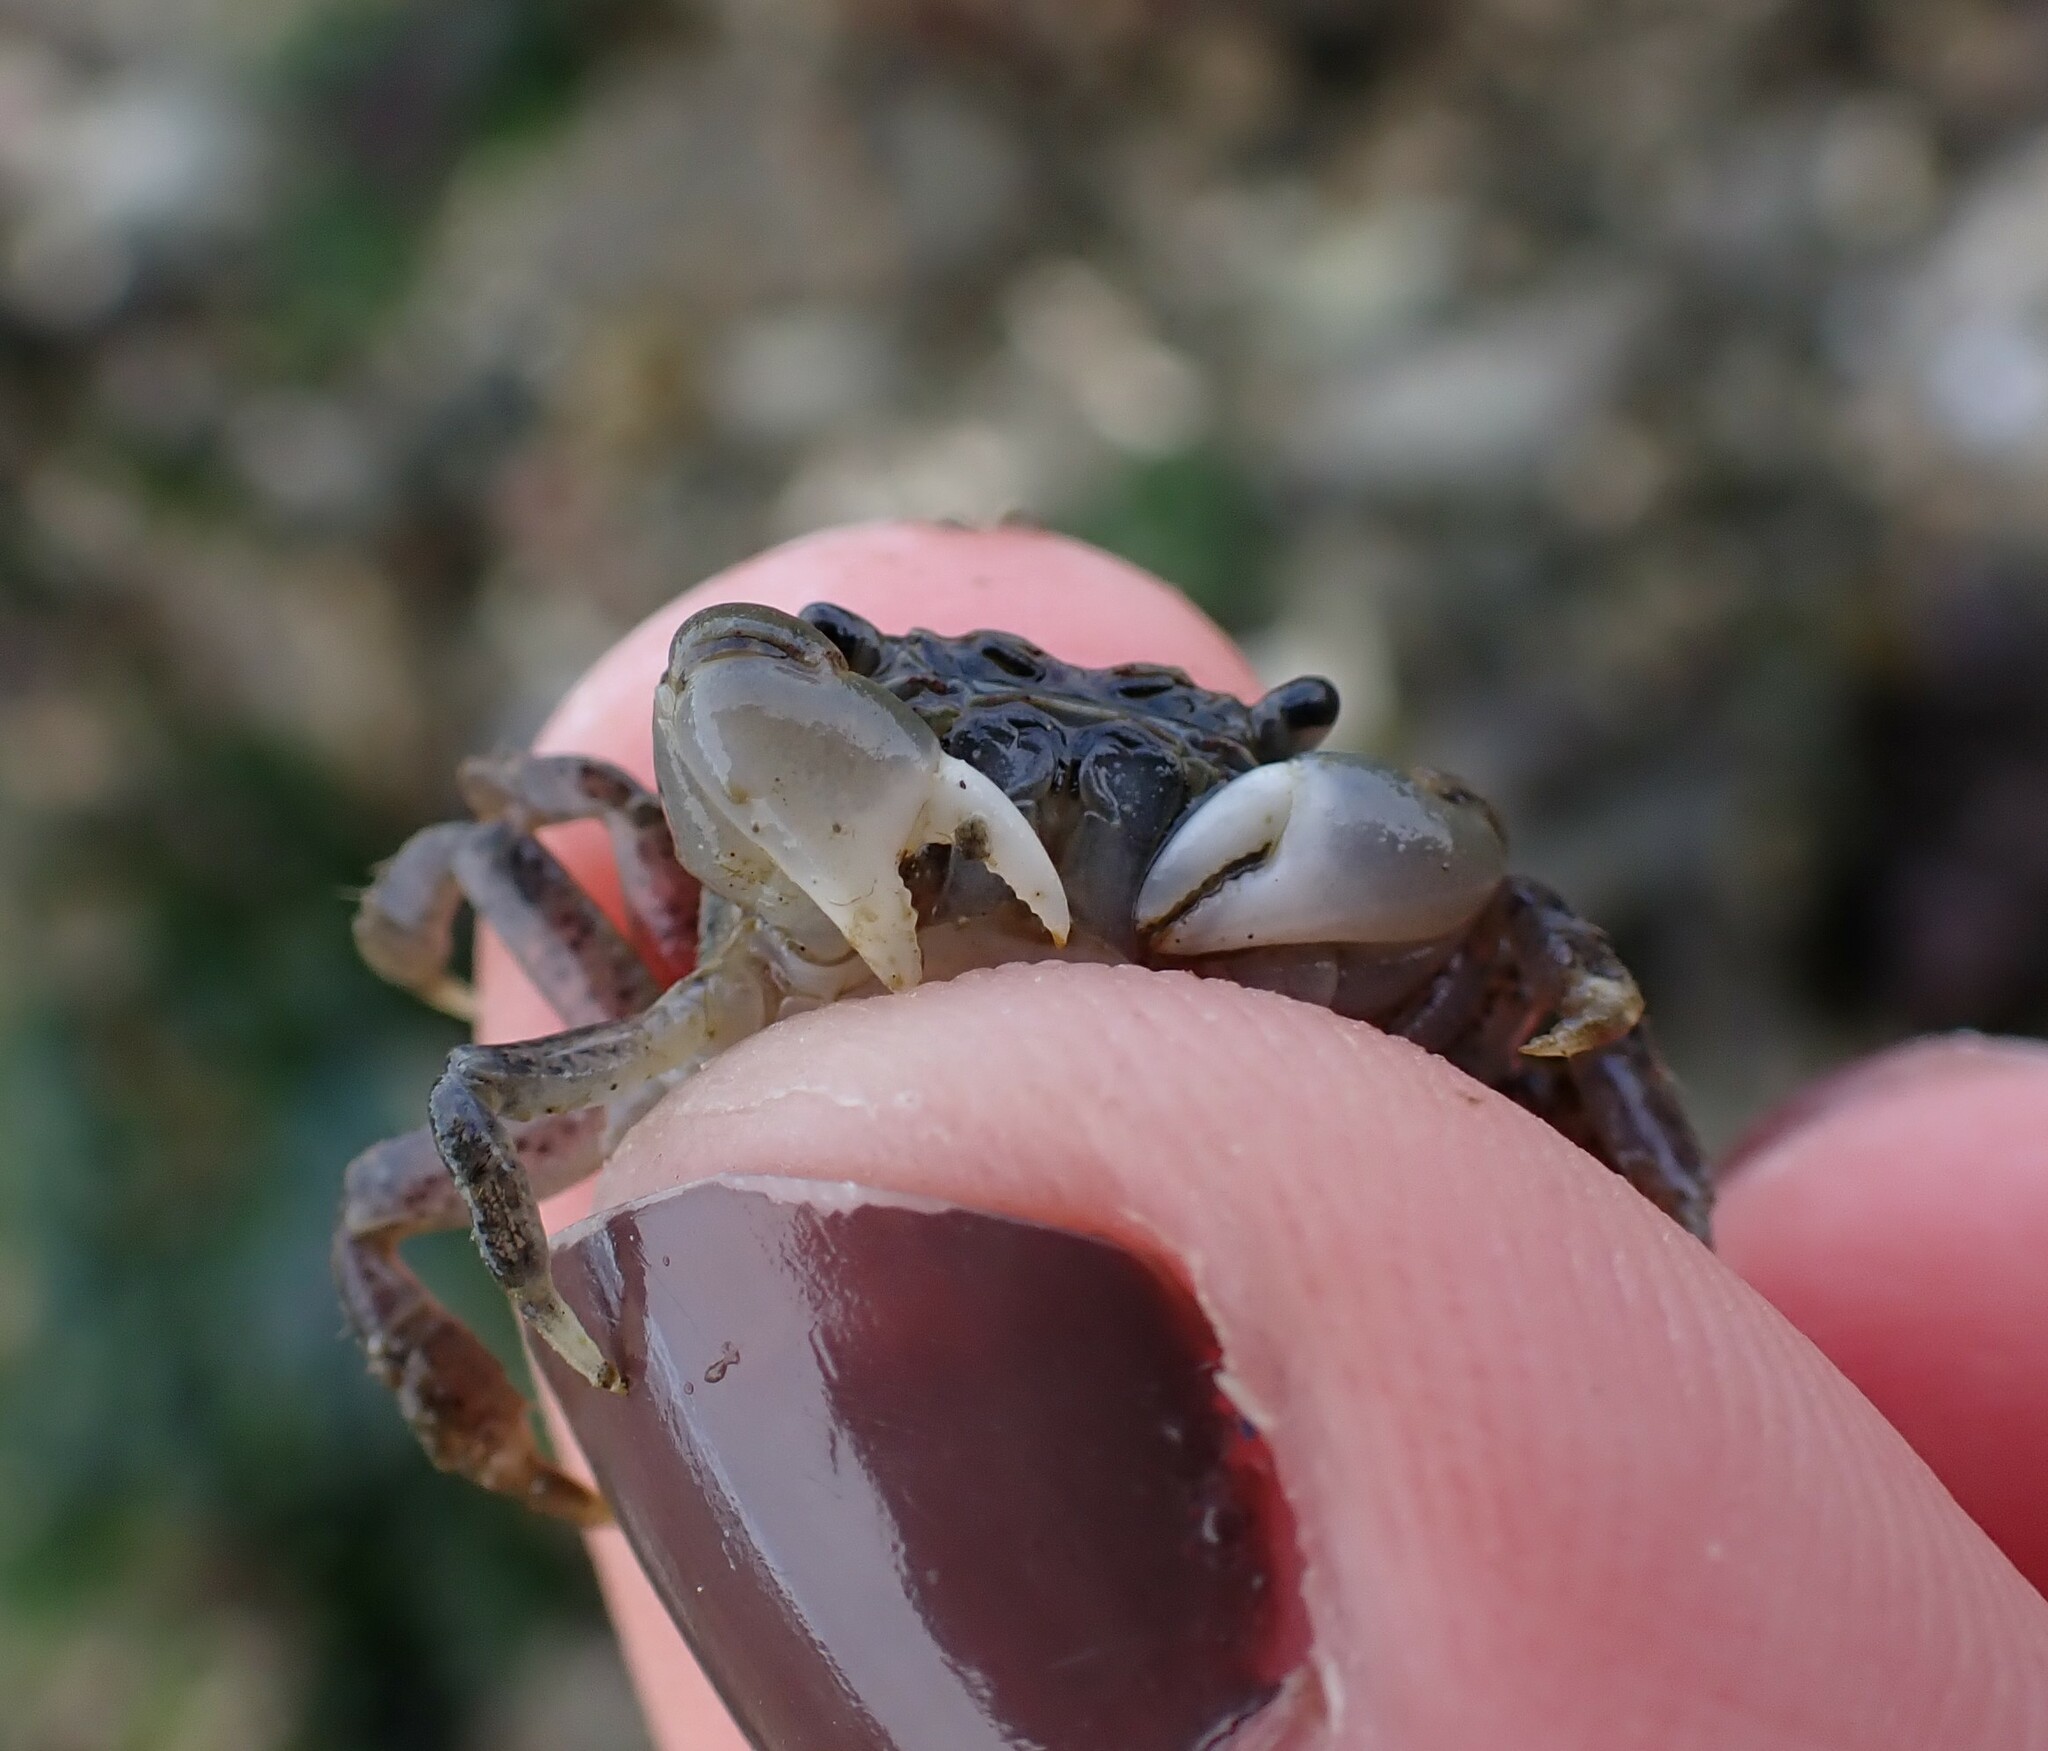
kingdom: Animalia
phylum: Arthropoda
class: Malacostraca
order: Decapoda
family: Varunidae
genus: Hemigrapsus
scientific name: Hemigrapsus oregonensis
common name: Yellow shore crab
